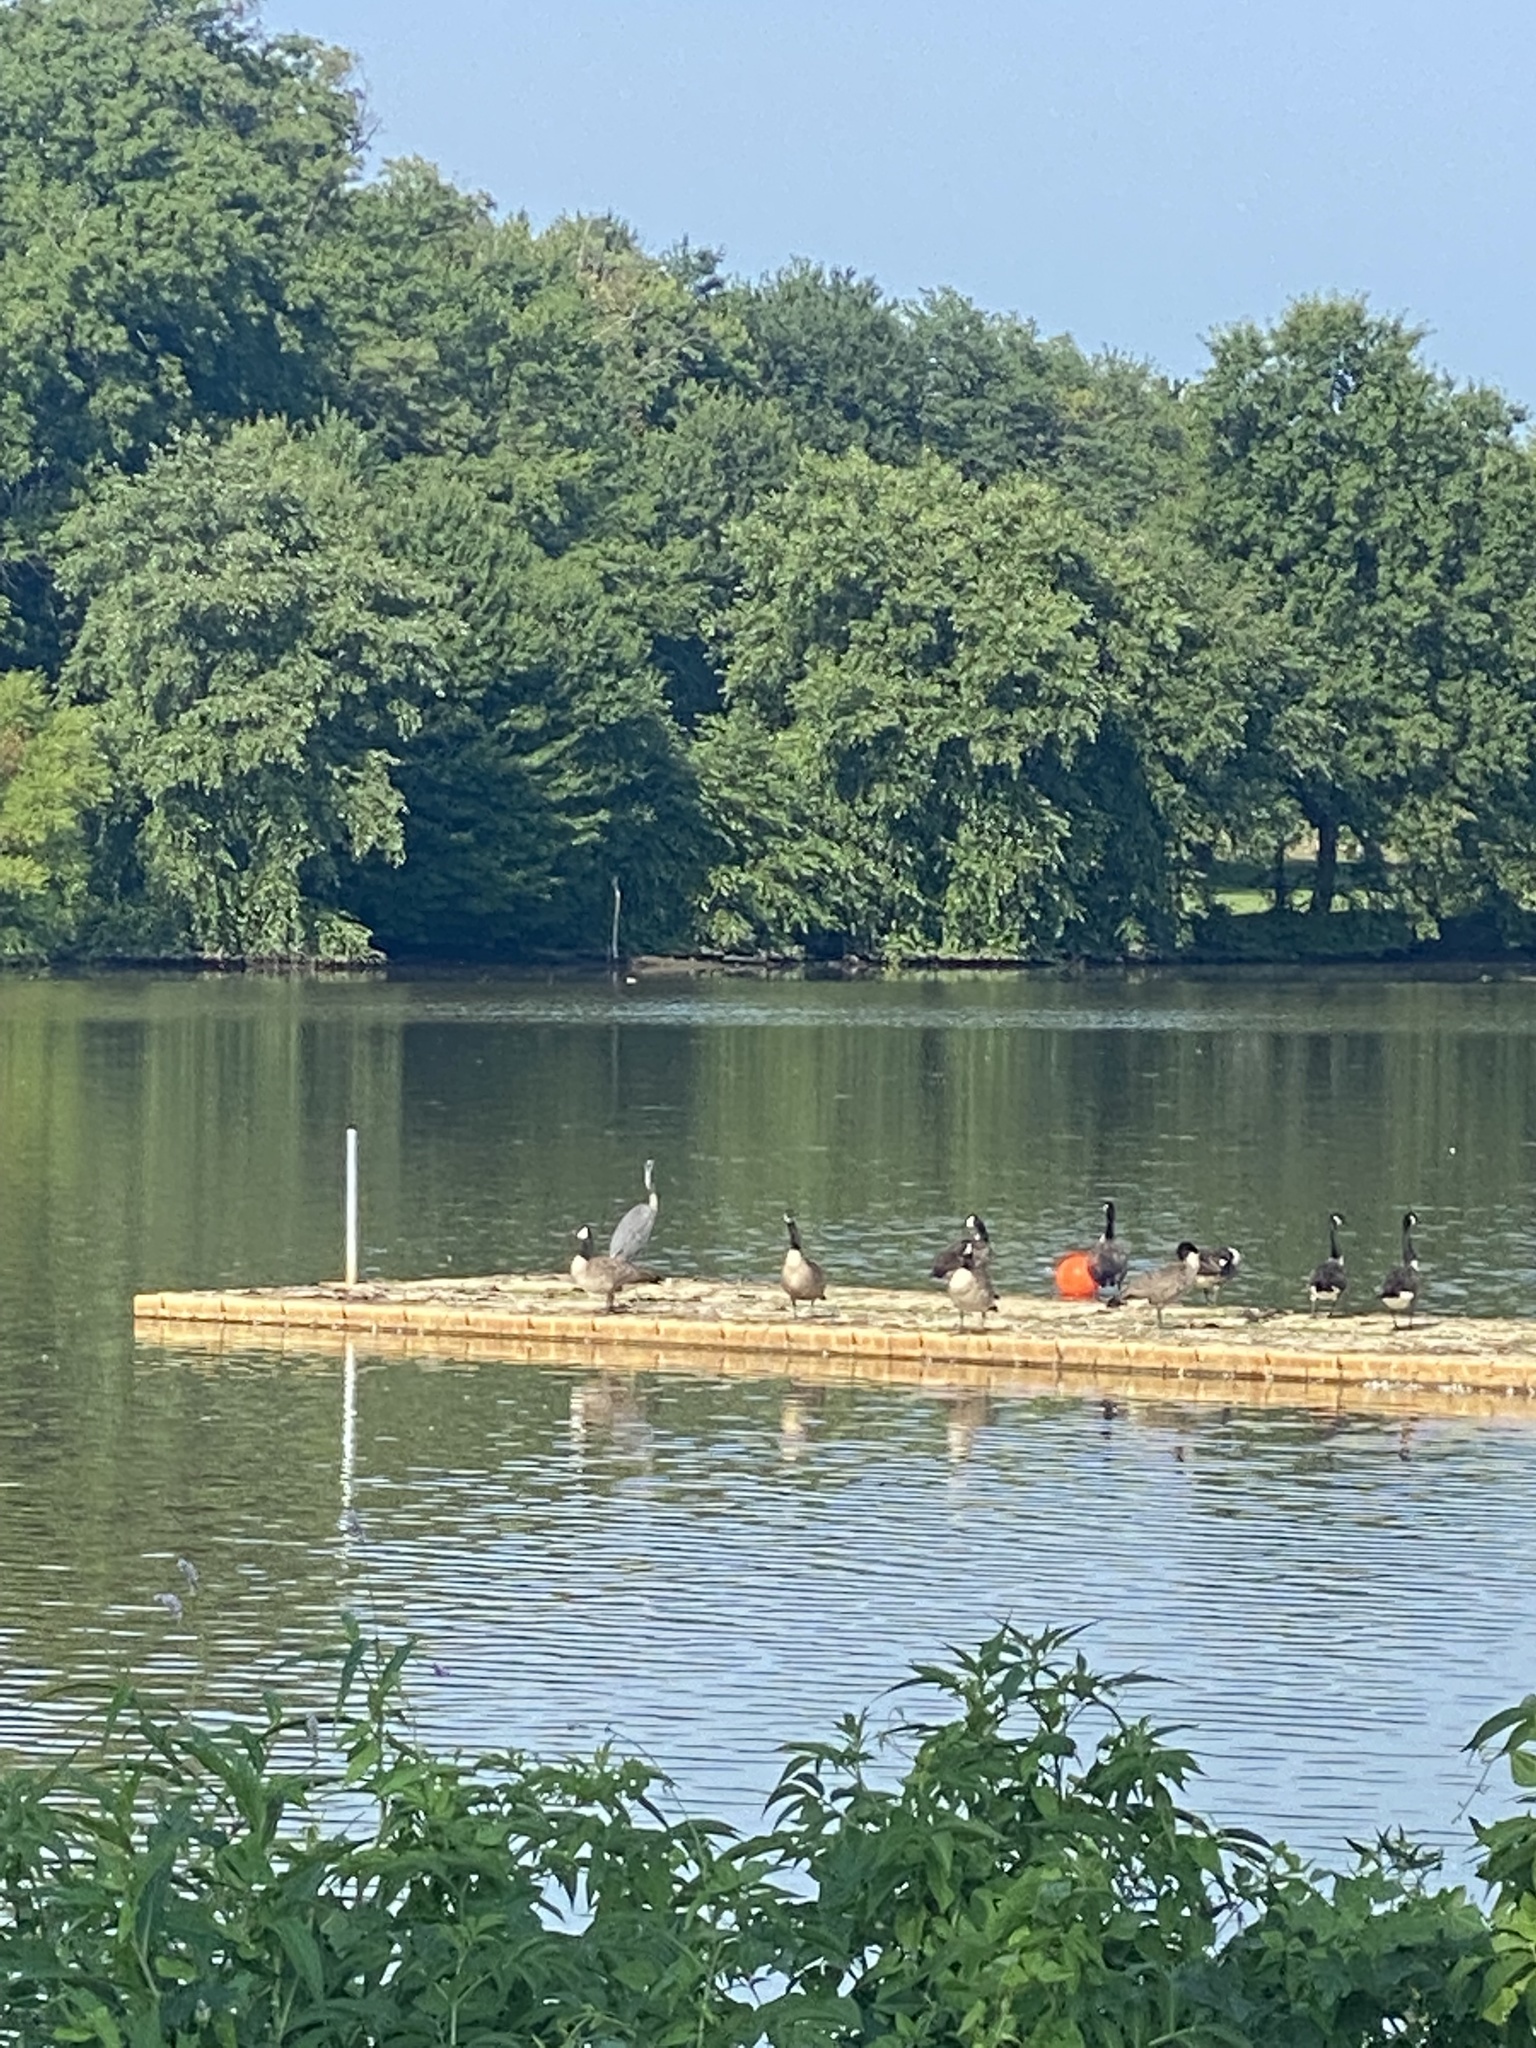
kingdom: Animalia
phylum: Chordata
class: Aves
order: Pelecaniformes
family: Ardeidae
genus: Ardea
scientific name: Ardea herodias
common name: Great blue heron
